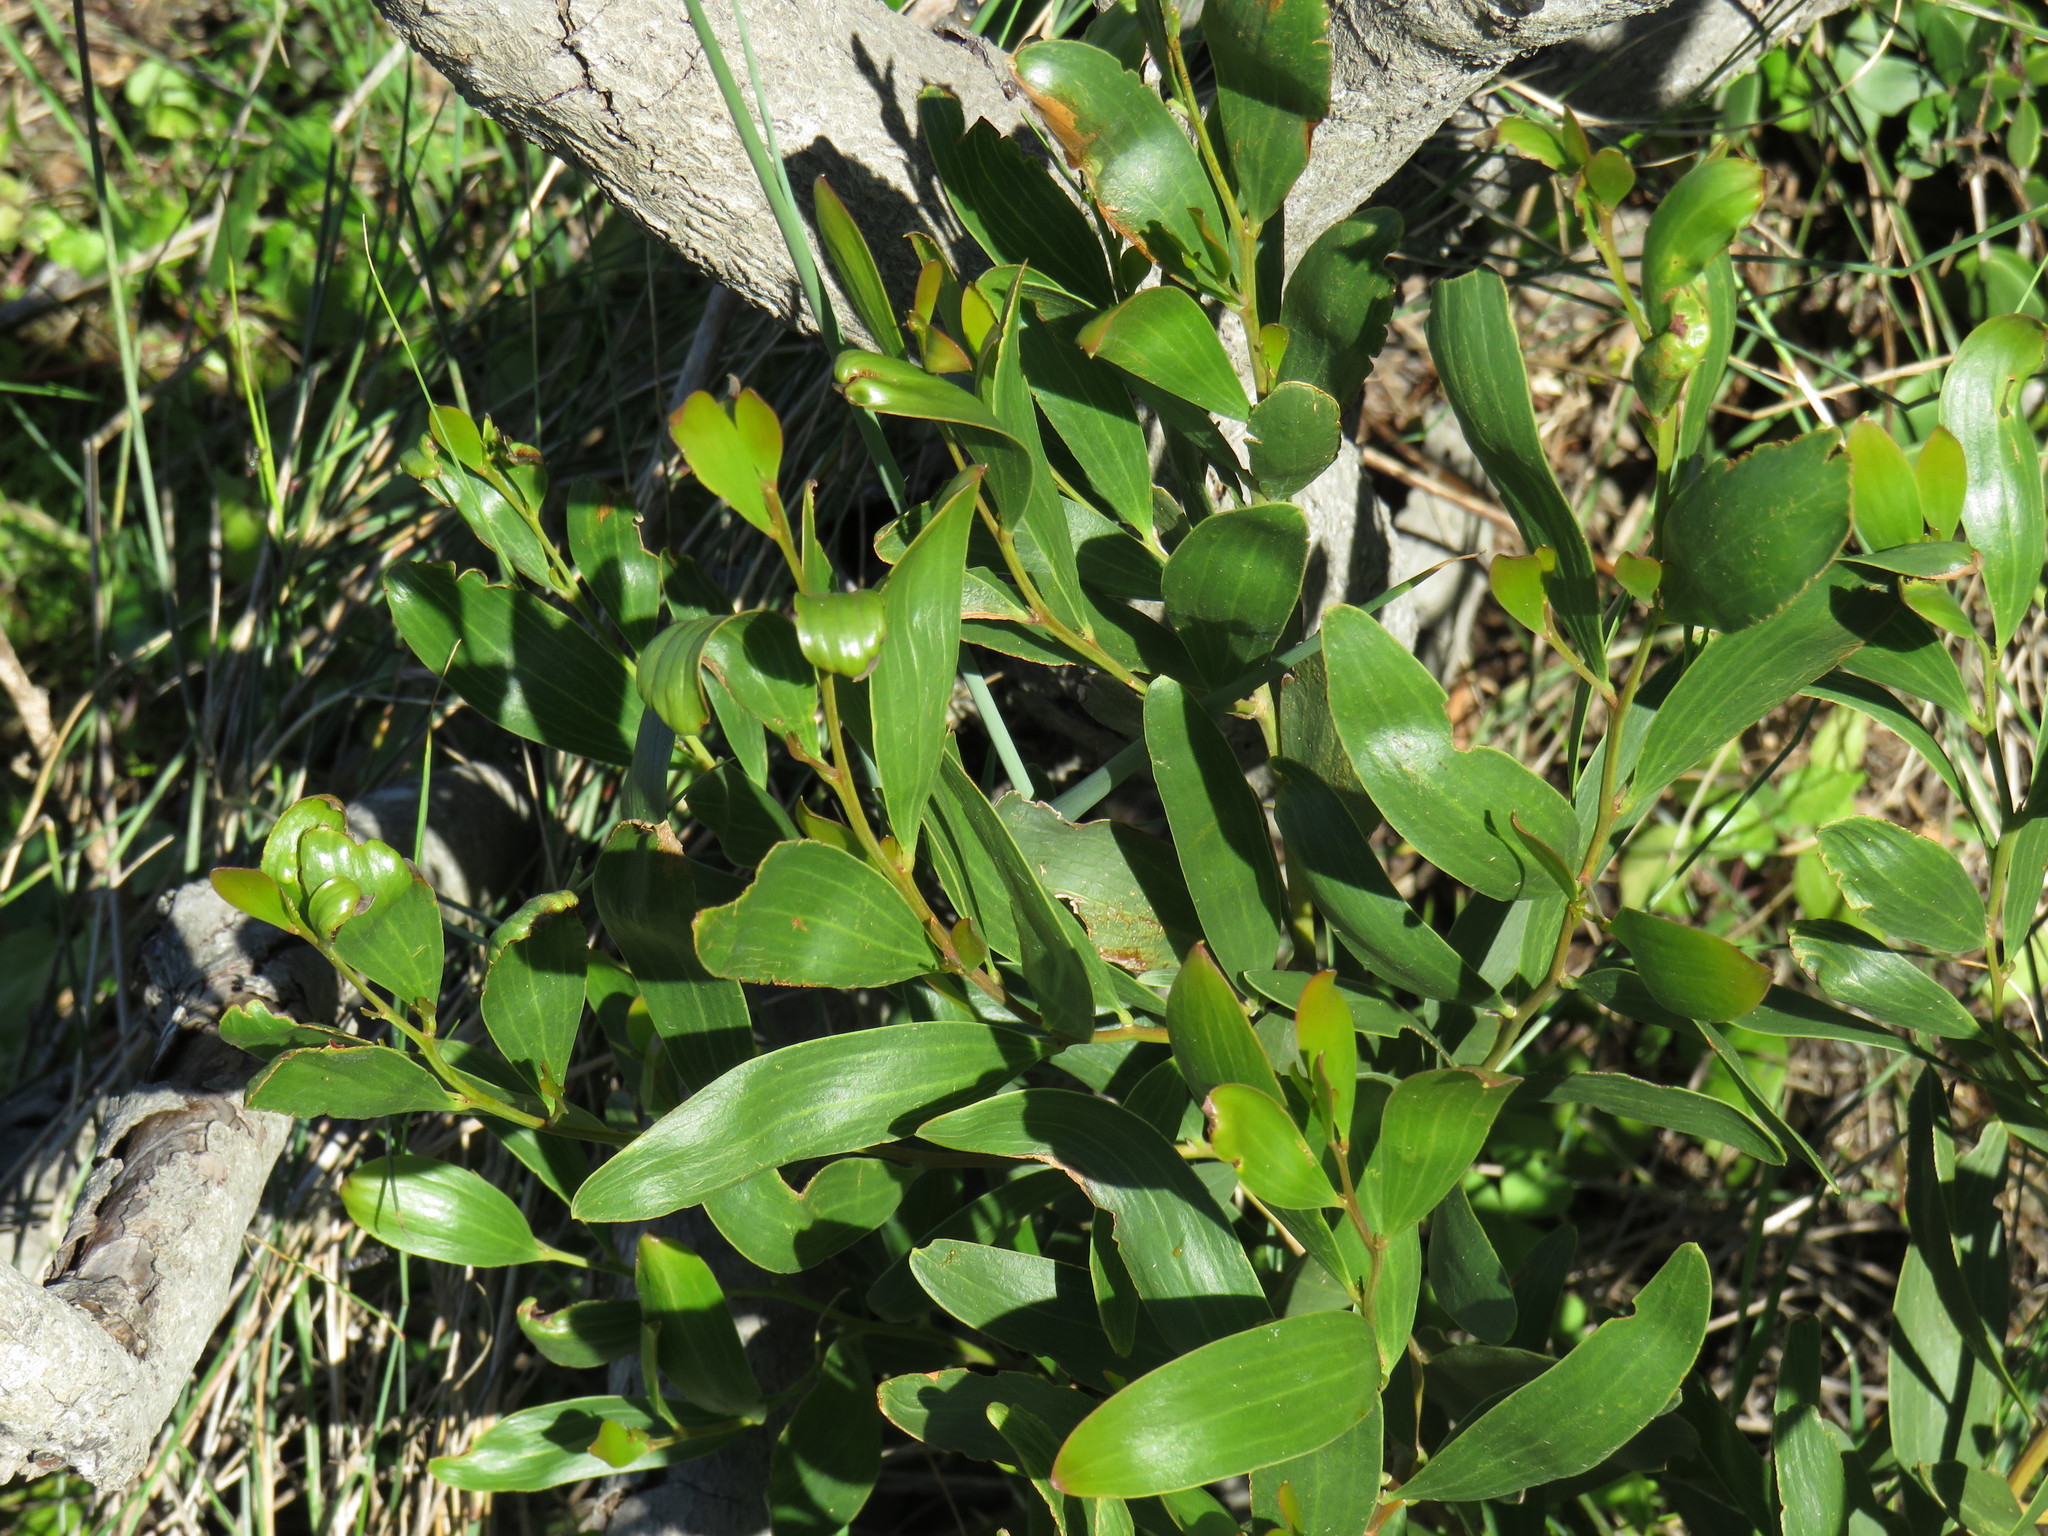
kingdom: Plantae
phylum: Tracheophyta
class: Magnoliopsida
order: Fabales
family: Fabaceae
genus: Acacia
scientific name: Acacia cyclops
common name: Coastal wattle
